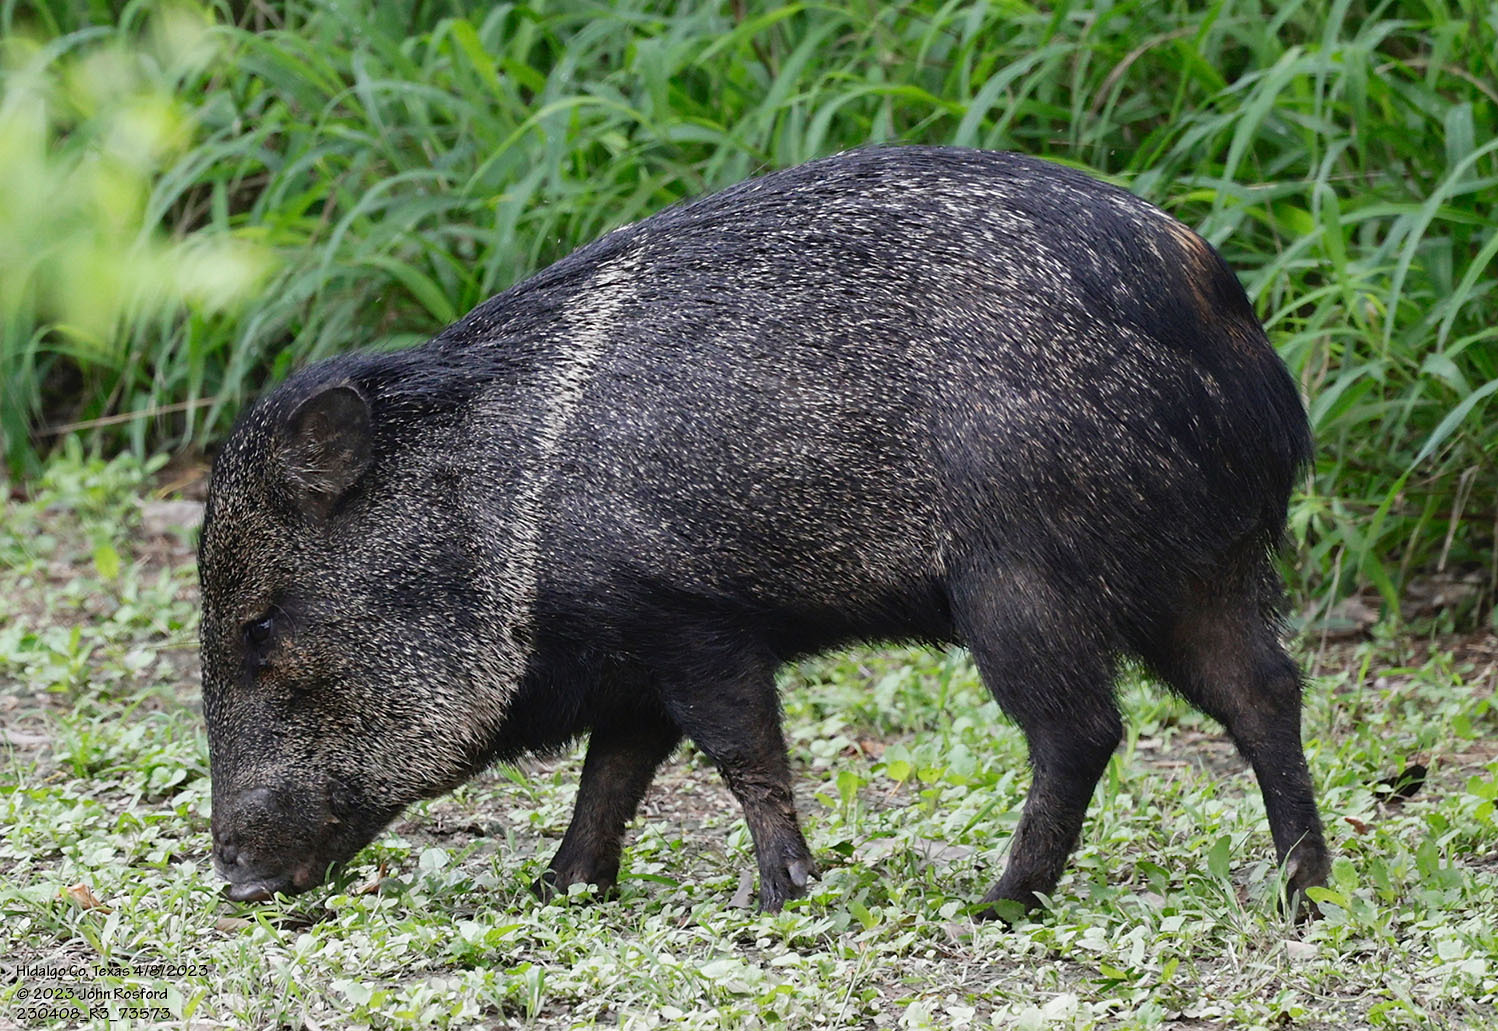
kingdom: Animalia
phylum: Chordata
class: Mammalia
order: Artiodactyla
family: Tayassuidae
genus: Pecari
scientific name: Pecari tajacu
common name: Collared peccary
